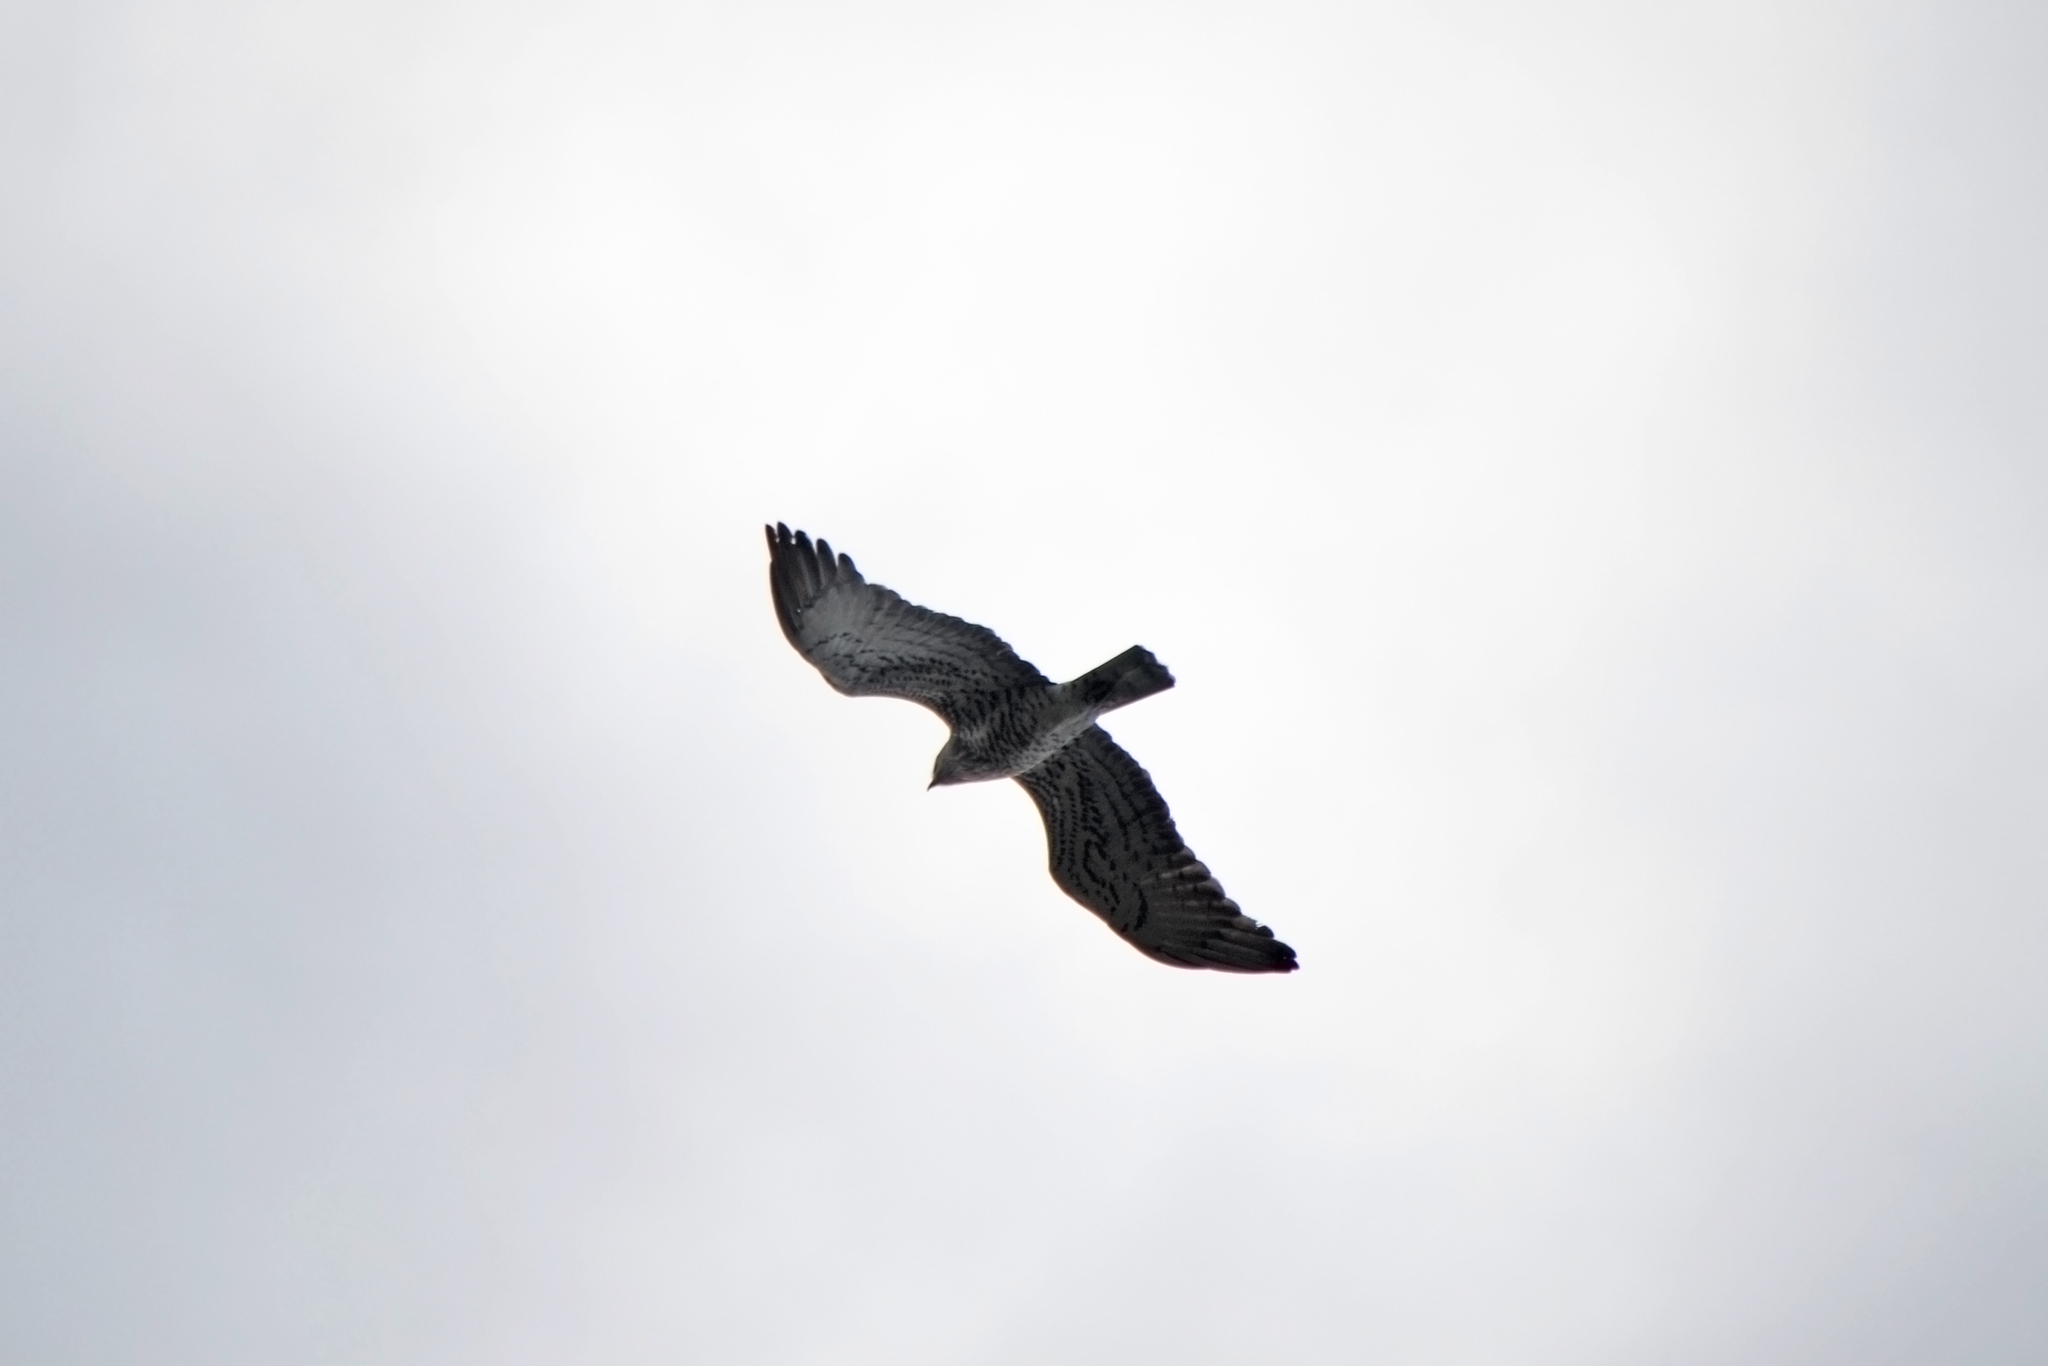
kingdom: Animalia
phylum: Chordata
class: Aves
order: Accipitriformes
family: Accipitridae
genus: Circaetus
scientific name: Circaetus gallicus
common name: Short-toed snake eagle
